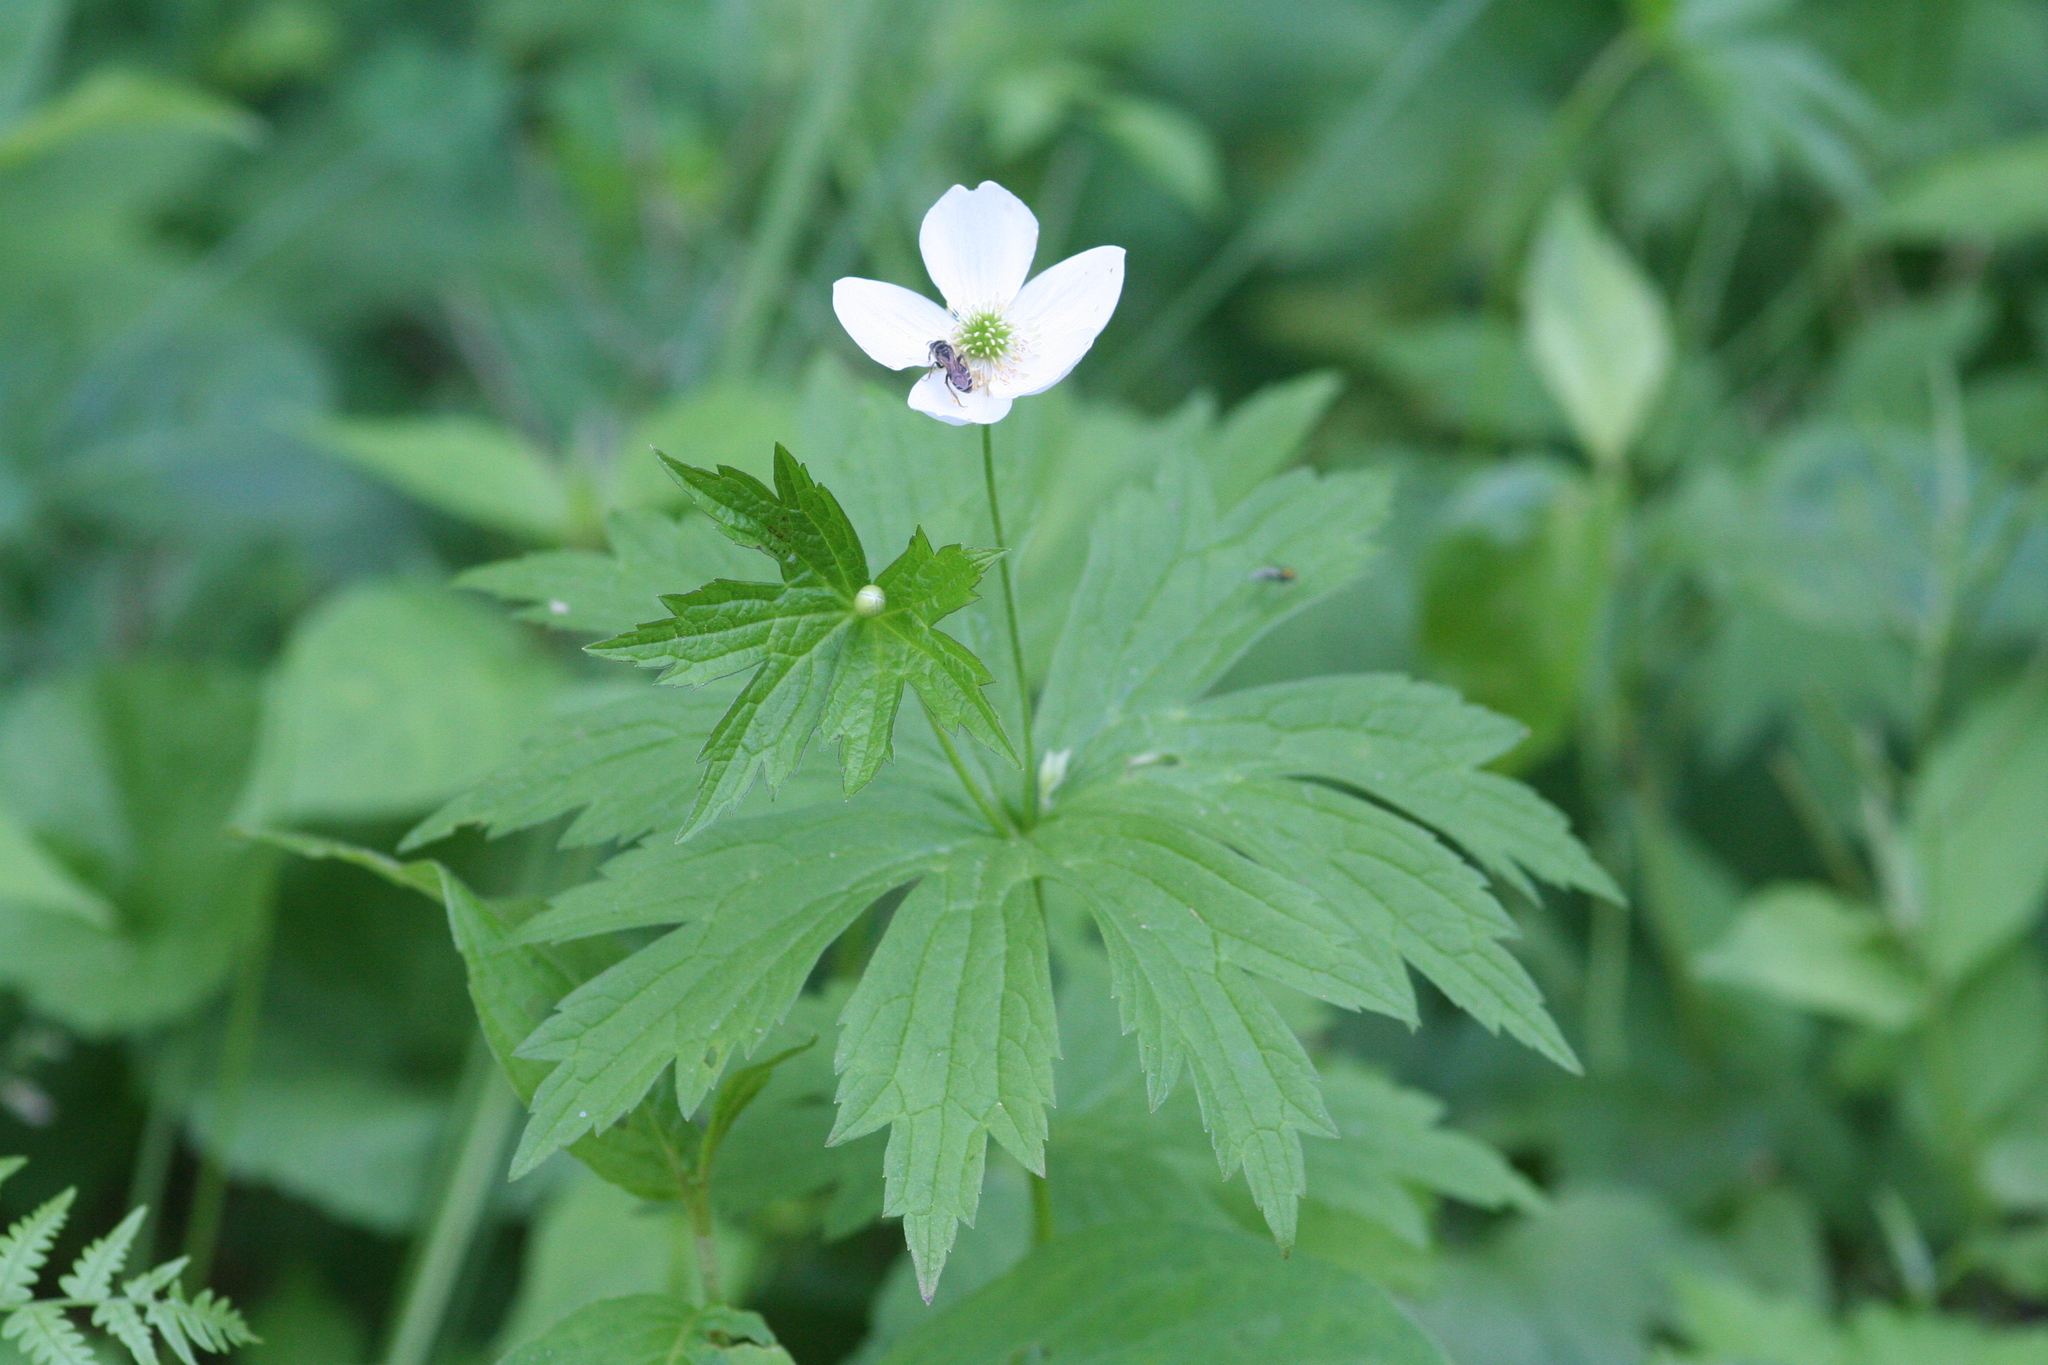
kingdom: Plantae
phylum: Tracheophyta
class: Magnoliopsida
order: Ranunculales
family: Ranunculaceae
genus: Anemonastrum
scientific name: Anemonastrum canadense
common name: Canada anemone
